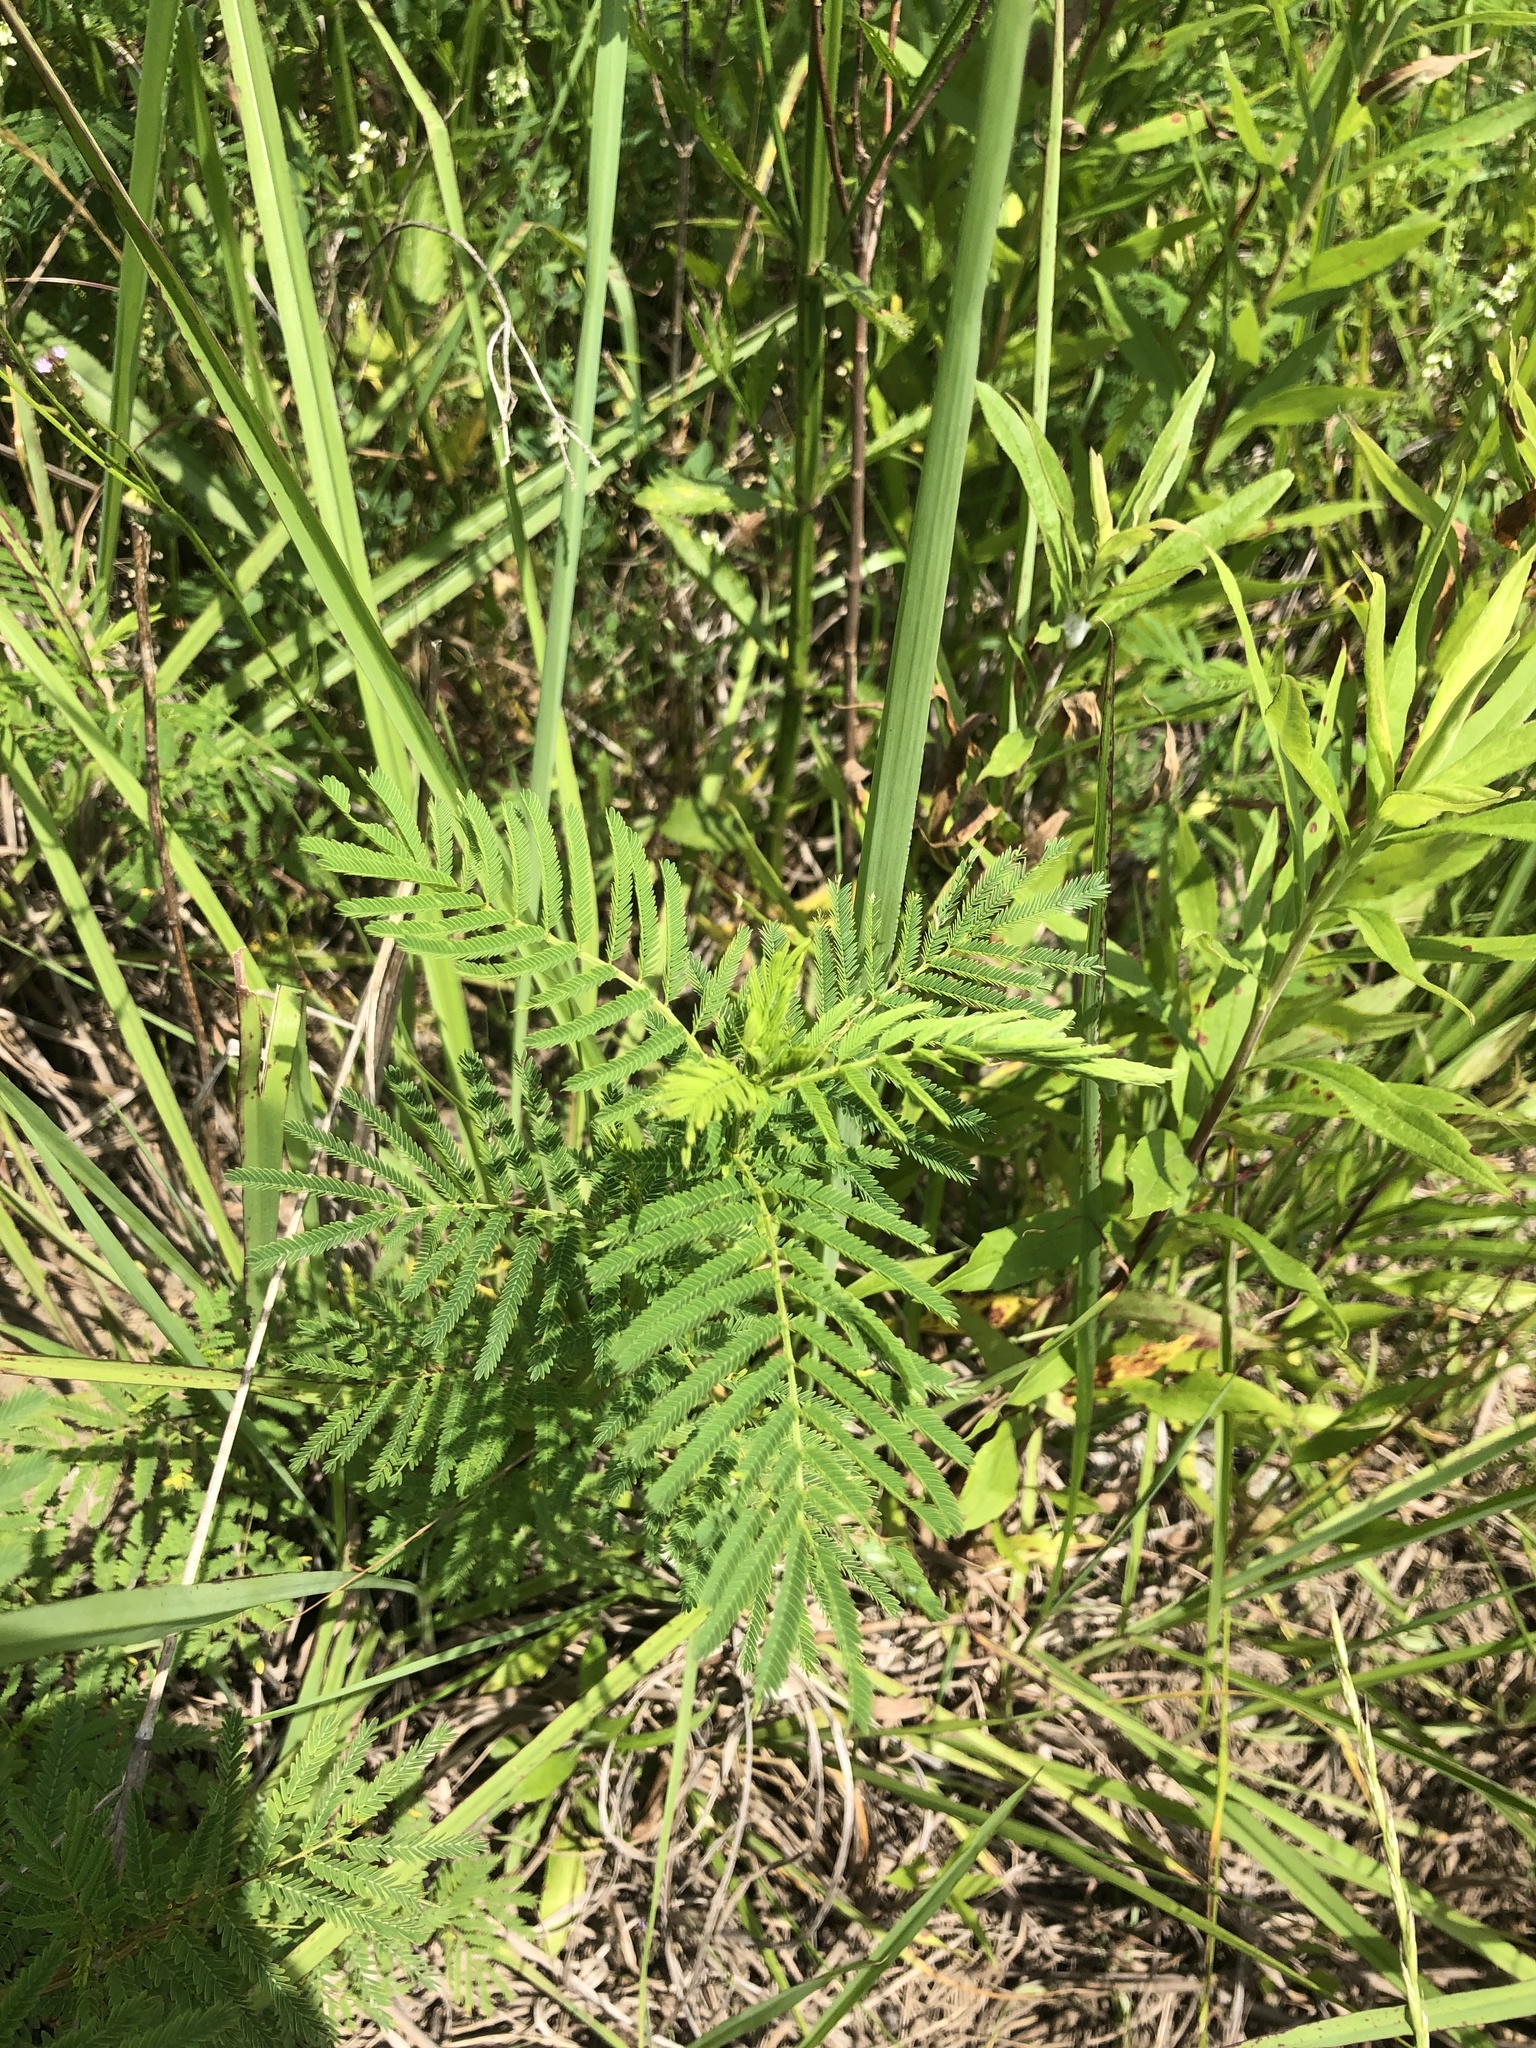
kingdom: Plantae
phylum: Tracheophyta
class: Magnoliopsida
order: Fabales
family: Fabaceae
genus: Desmanthus
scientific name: Desmanthus illinoensis
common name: Illinois bundle-flower
